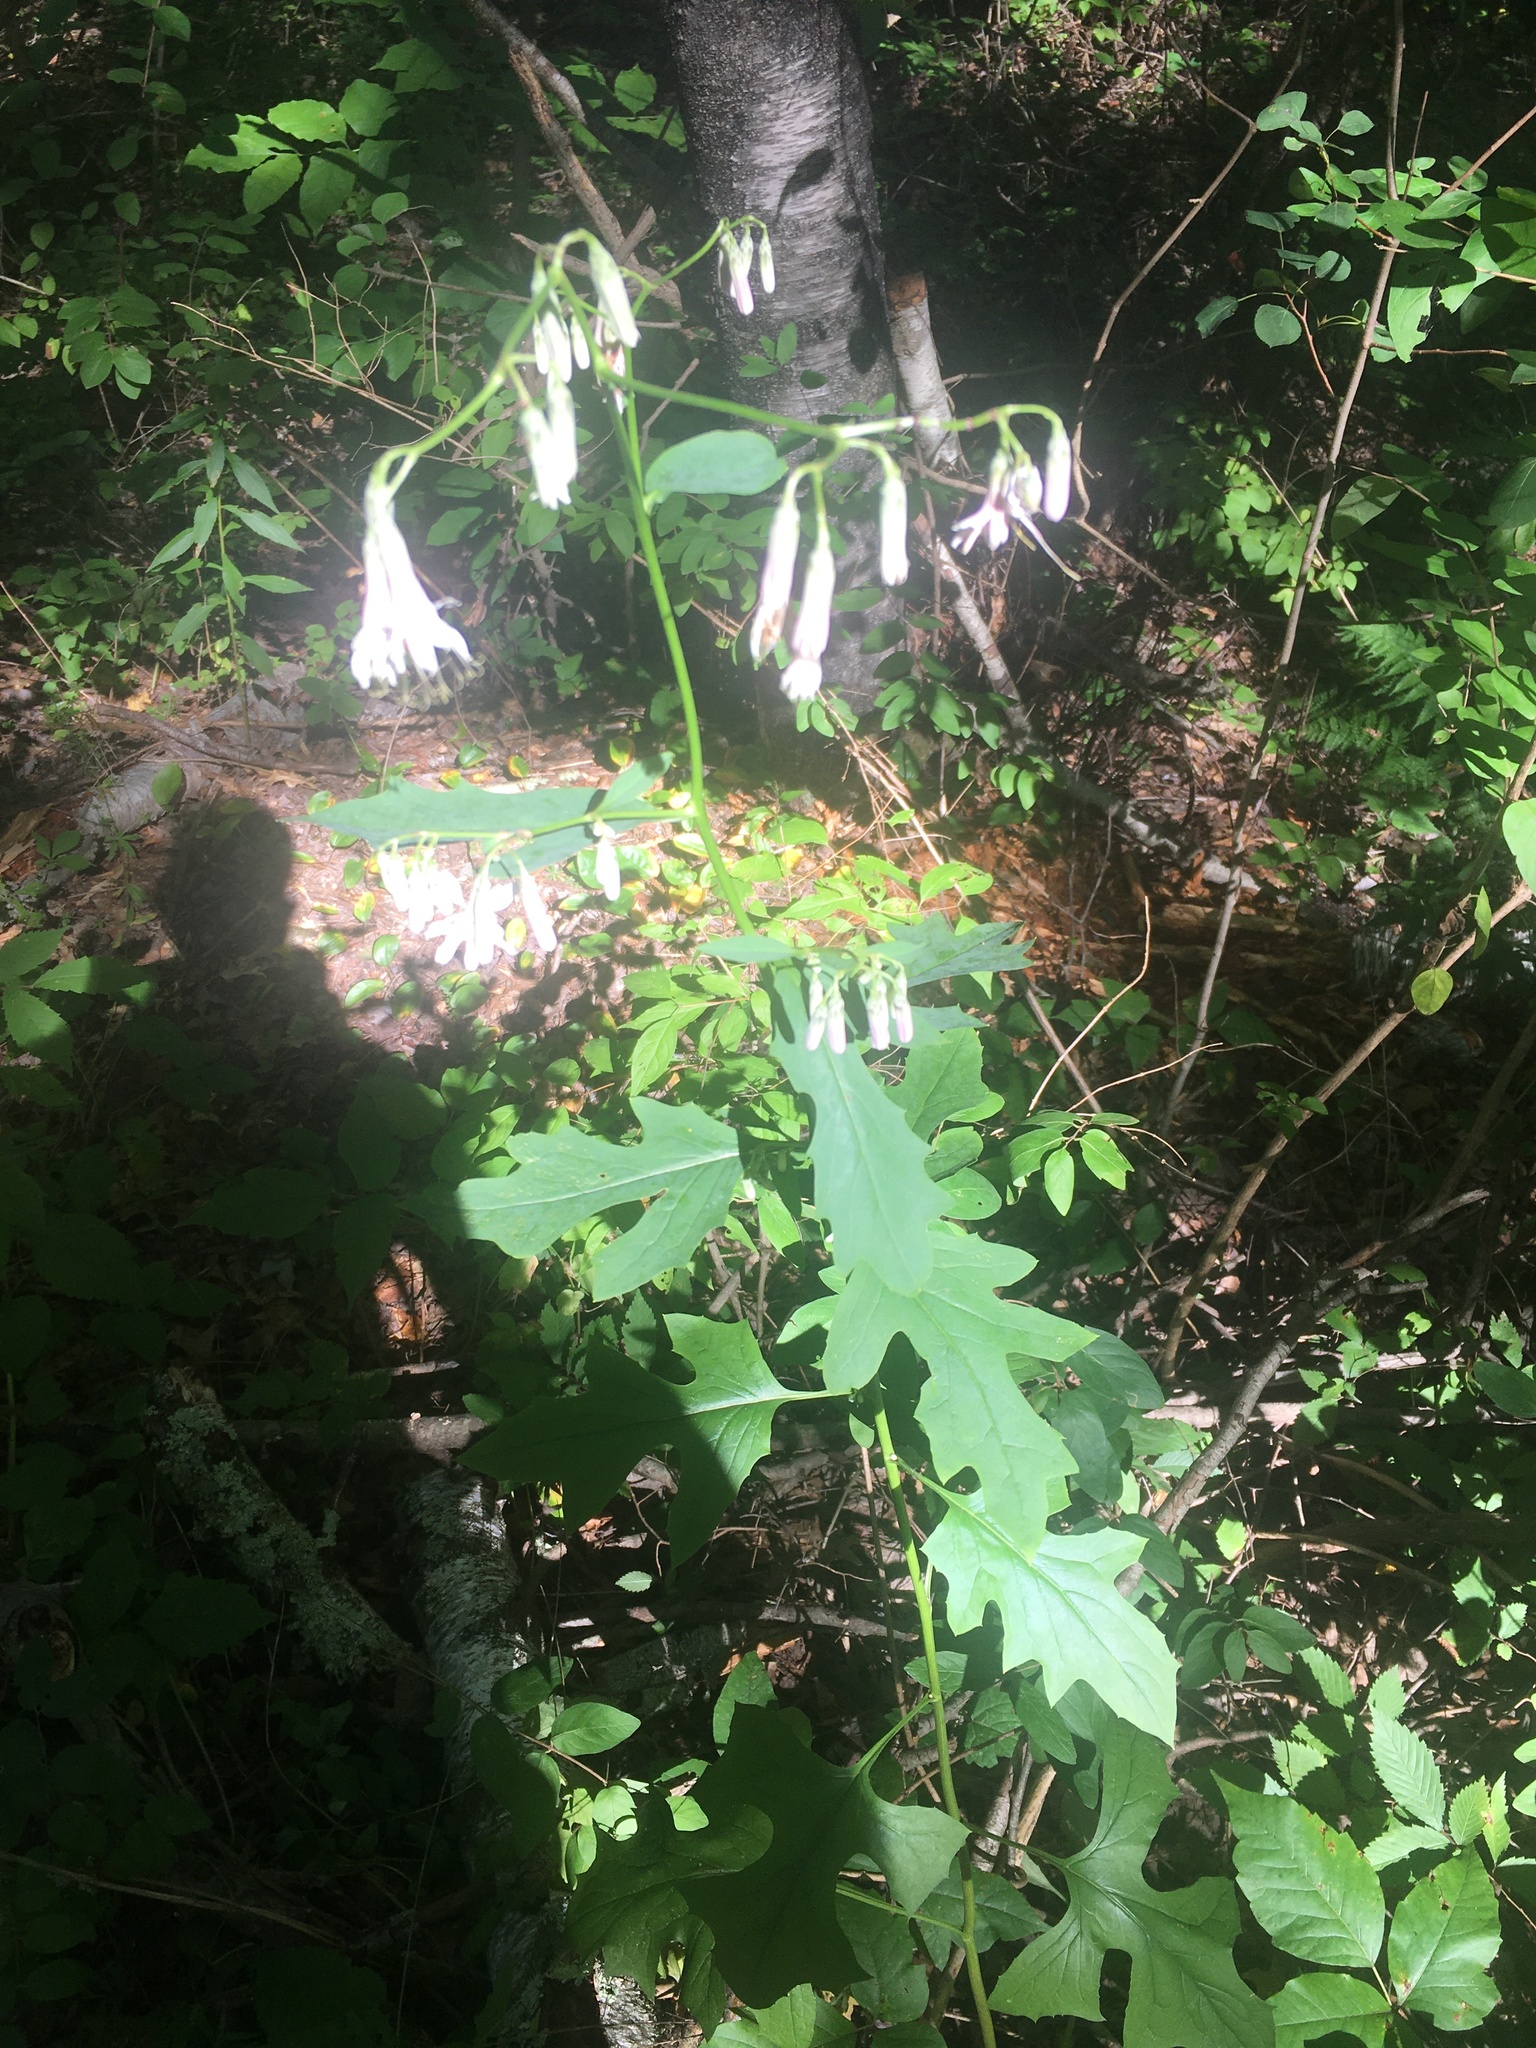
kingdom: Plantae
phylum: Tracheophyta
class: Magnoliopsida
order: Asterales
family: Asteraceae
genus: Nabalus
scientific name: Nabalus albus
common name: White rattlesnakeroot
